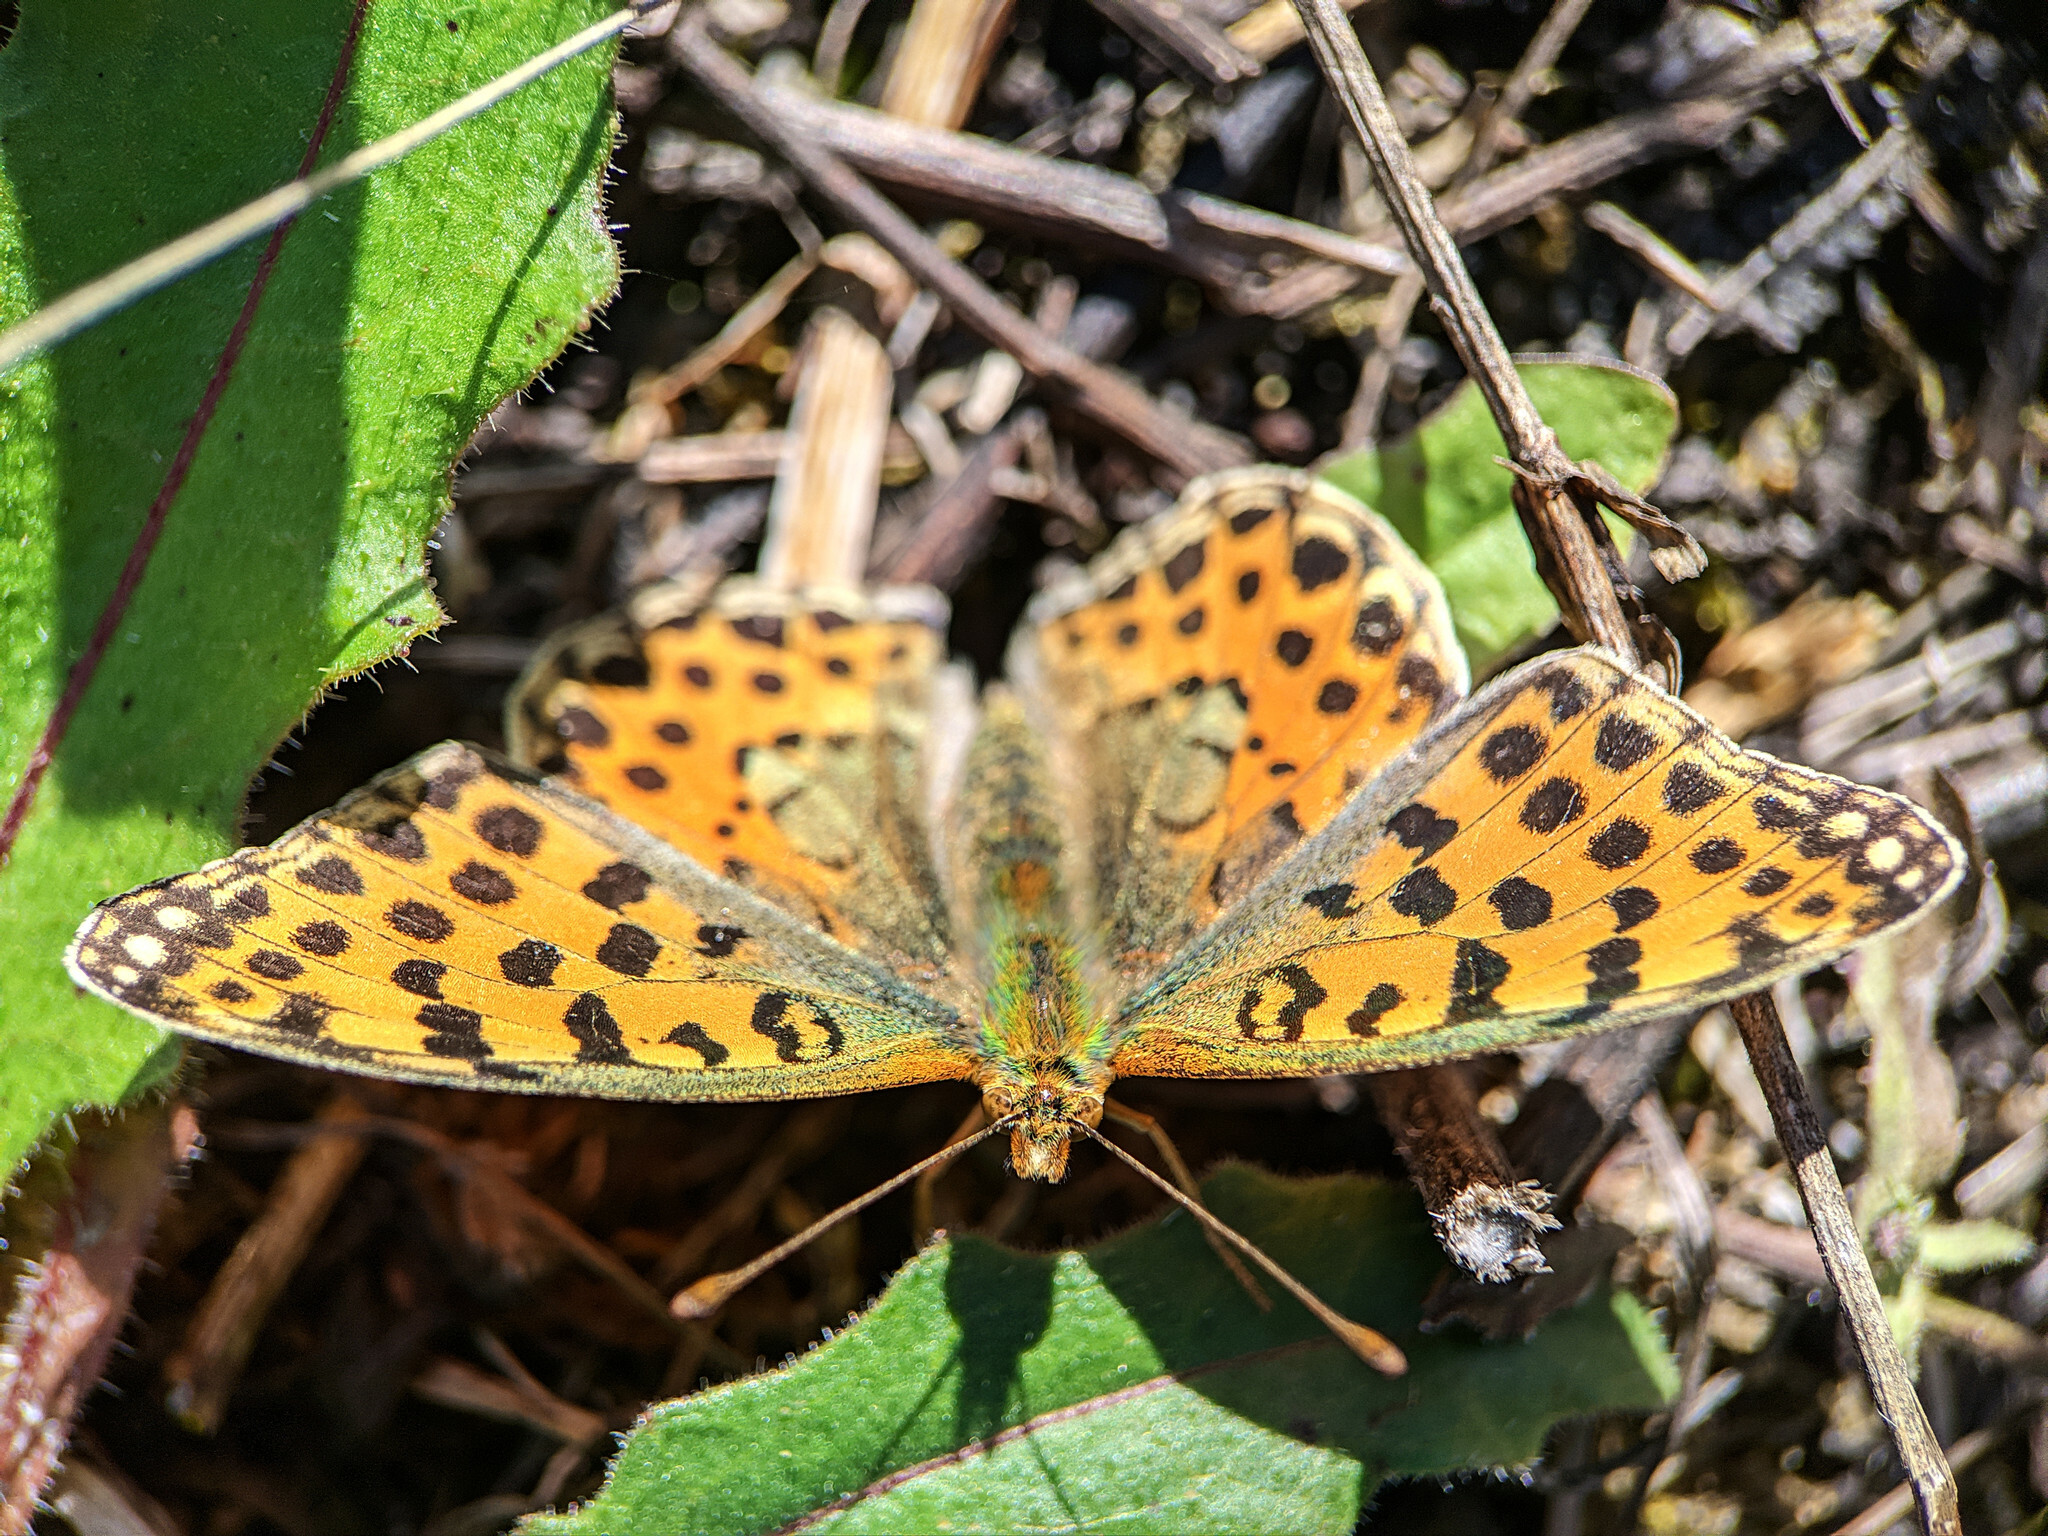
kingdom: Animalia
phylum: Arthropoda
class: Insecta
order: Lepidoptera
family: Nymphalidae
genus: Issoria
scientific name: Issoria lathonia
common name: Queen of spain fritillary
